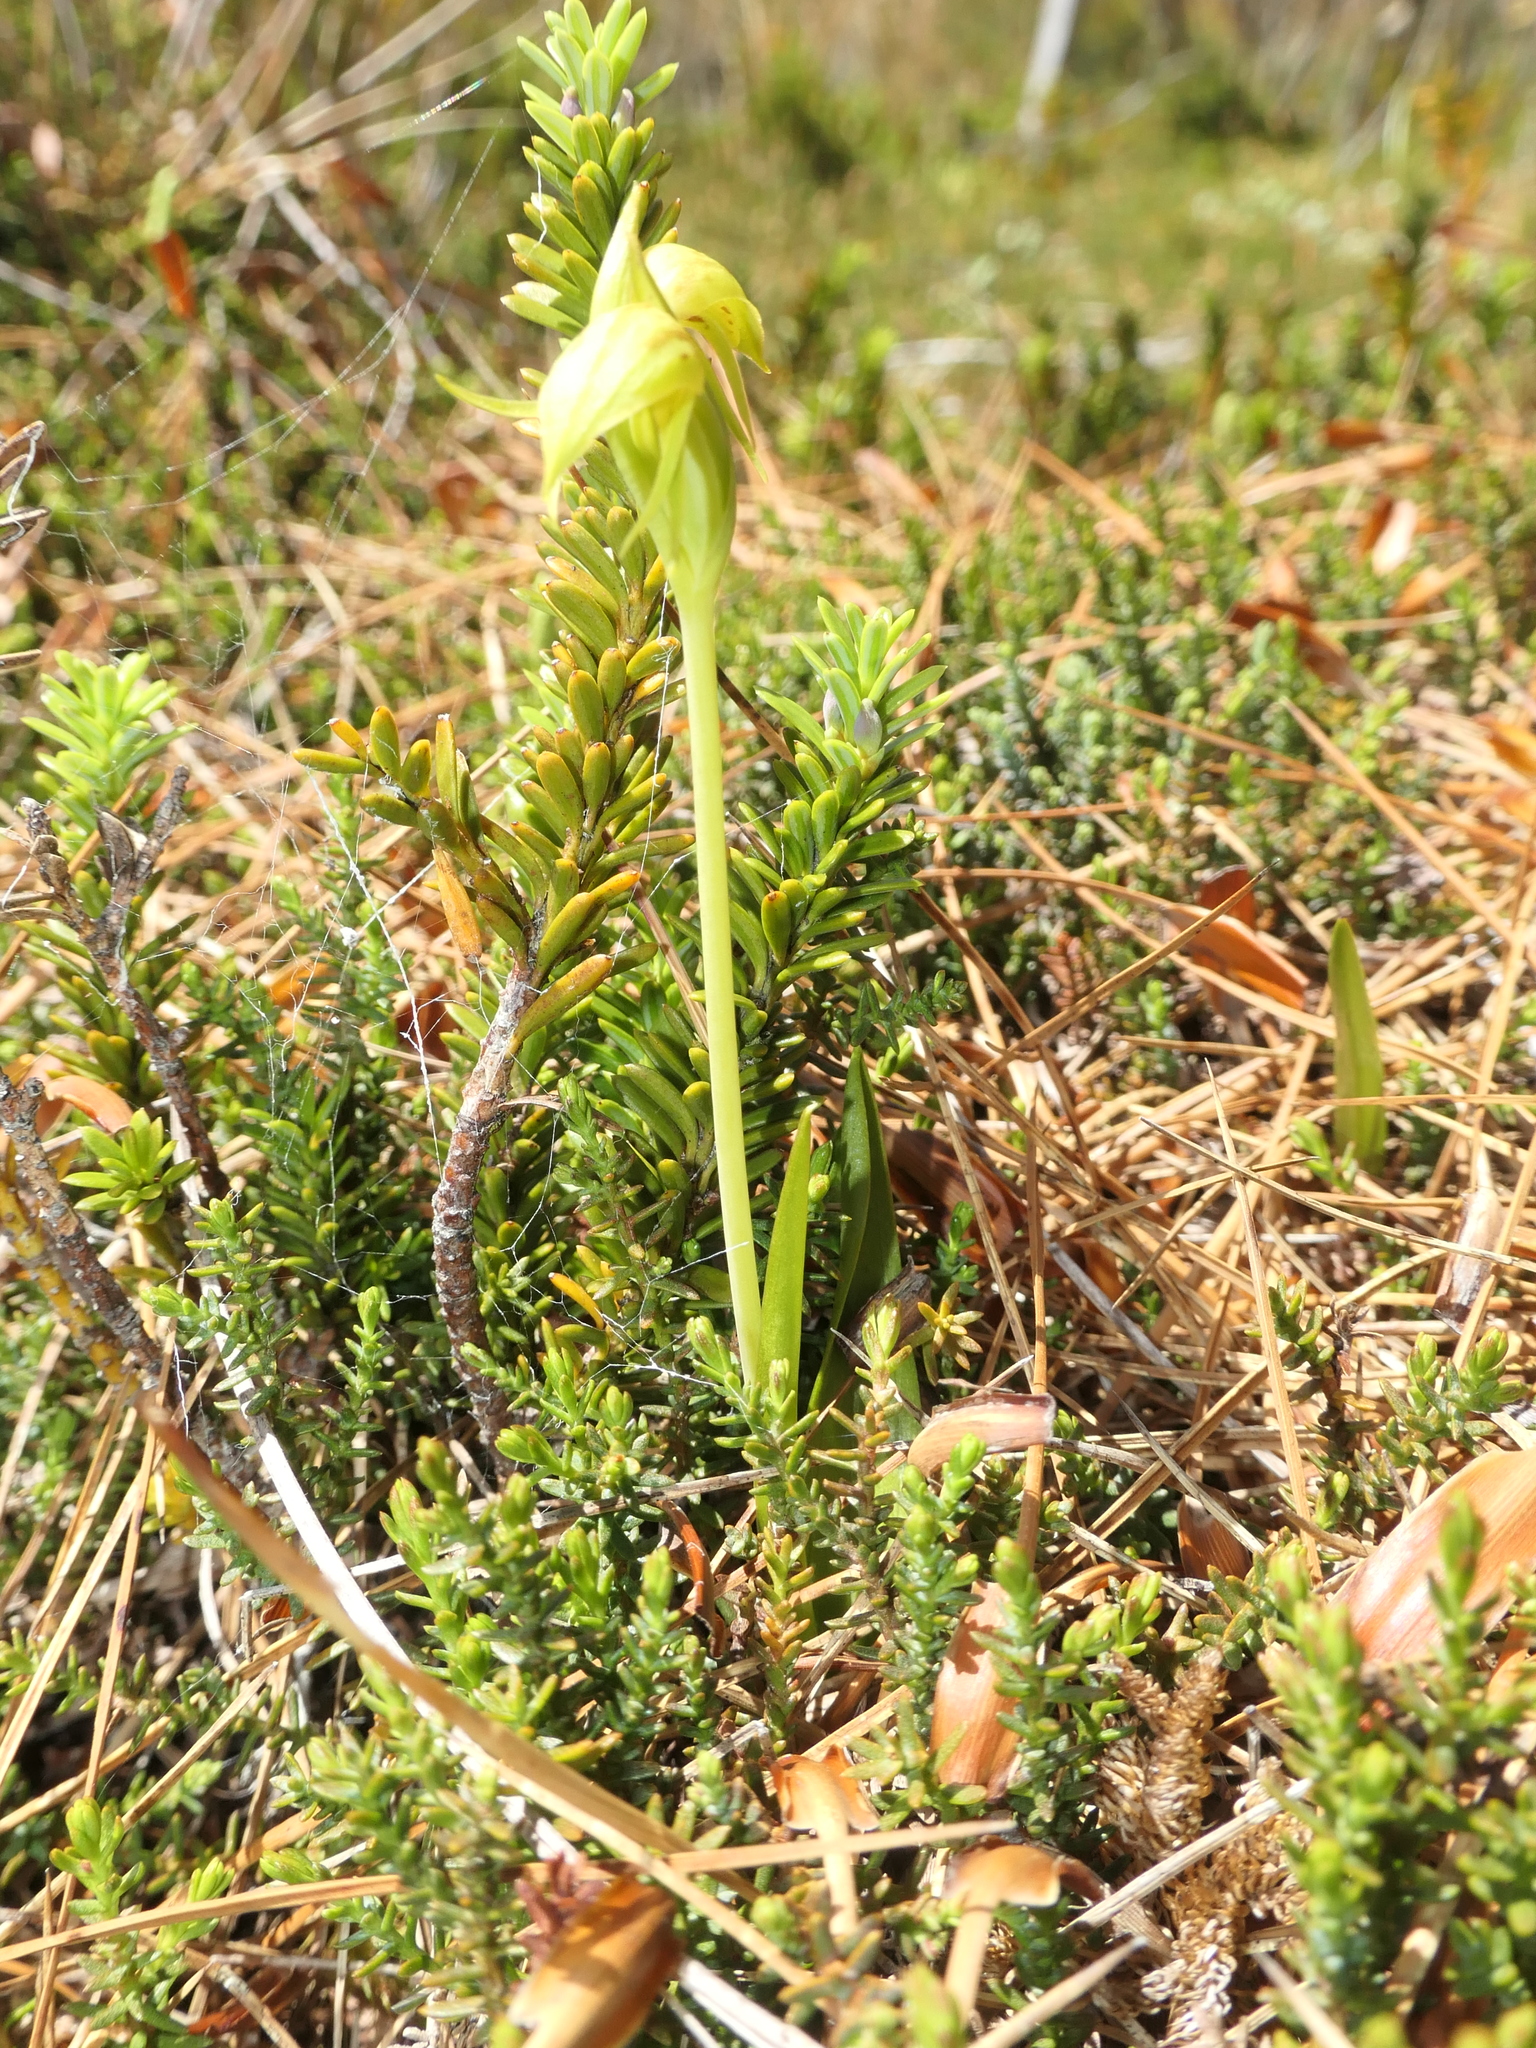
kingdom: Plantae
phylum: Tracheophyta
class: Liliopsida
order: Asparagales
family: Orchidaceae
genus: Waireia
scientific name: Waireia stenopetala
